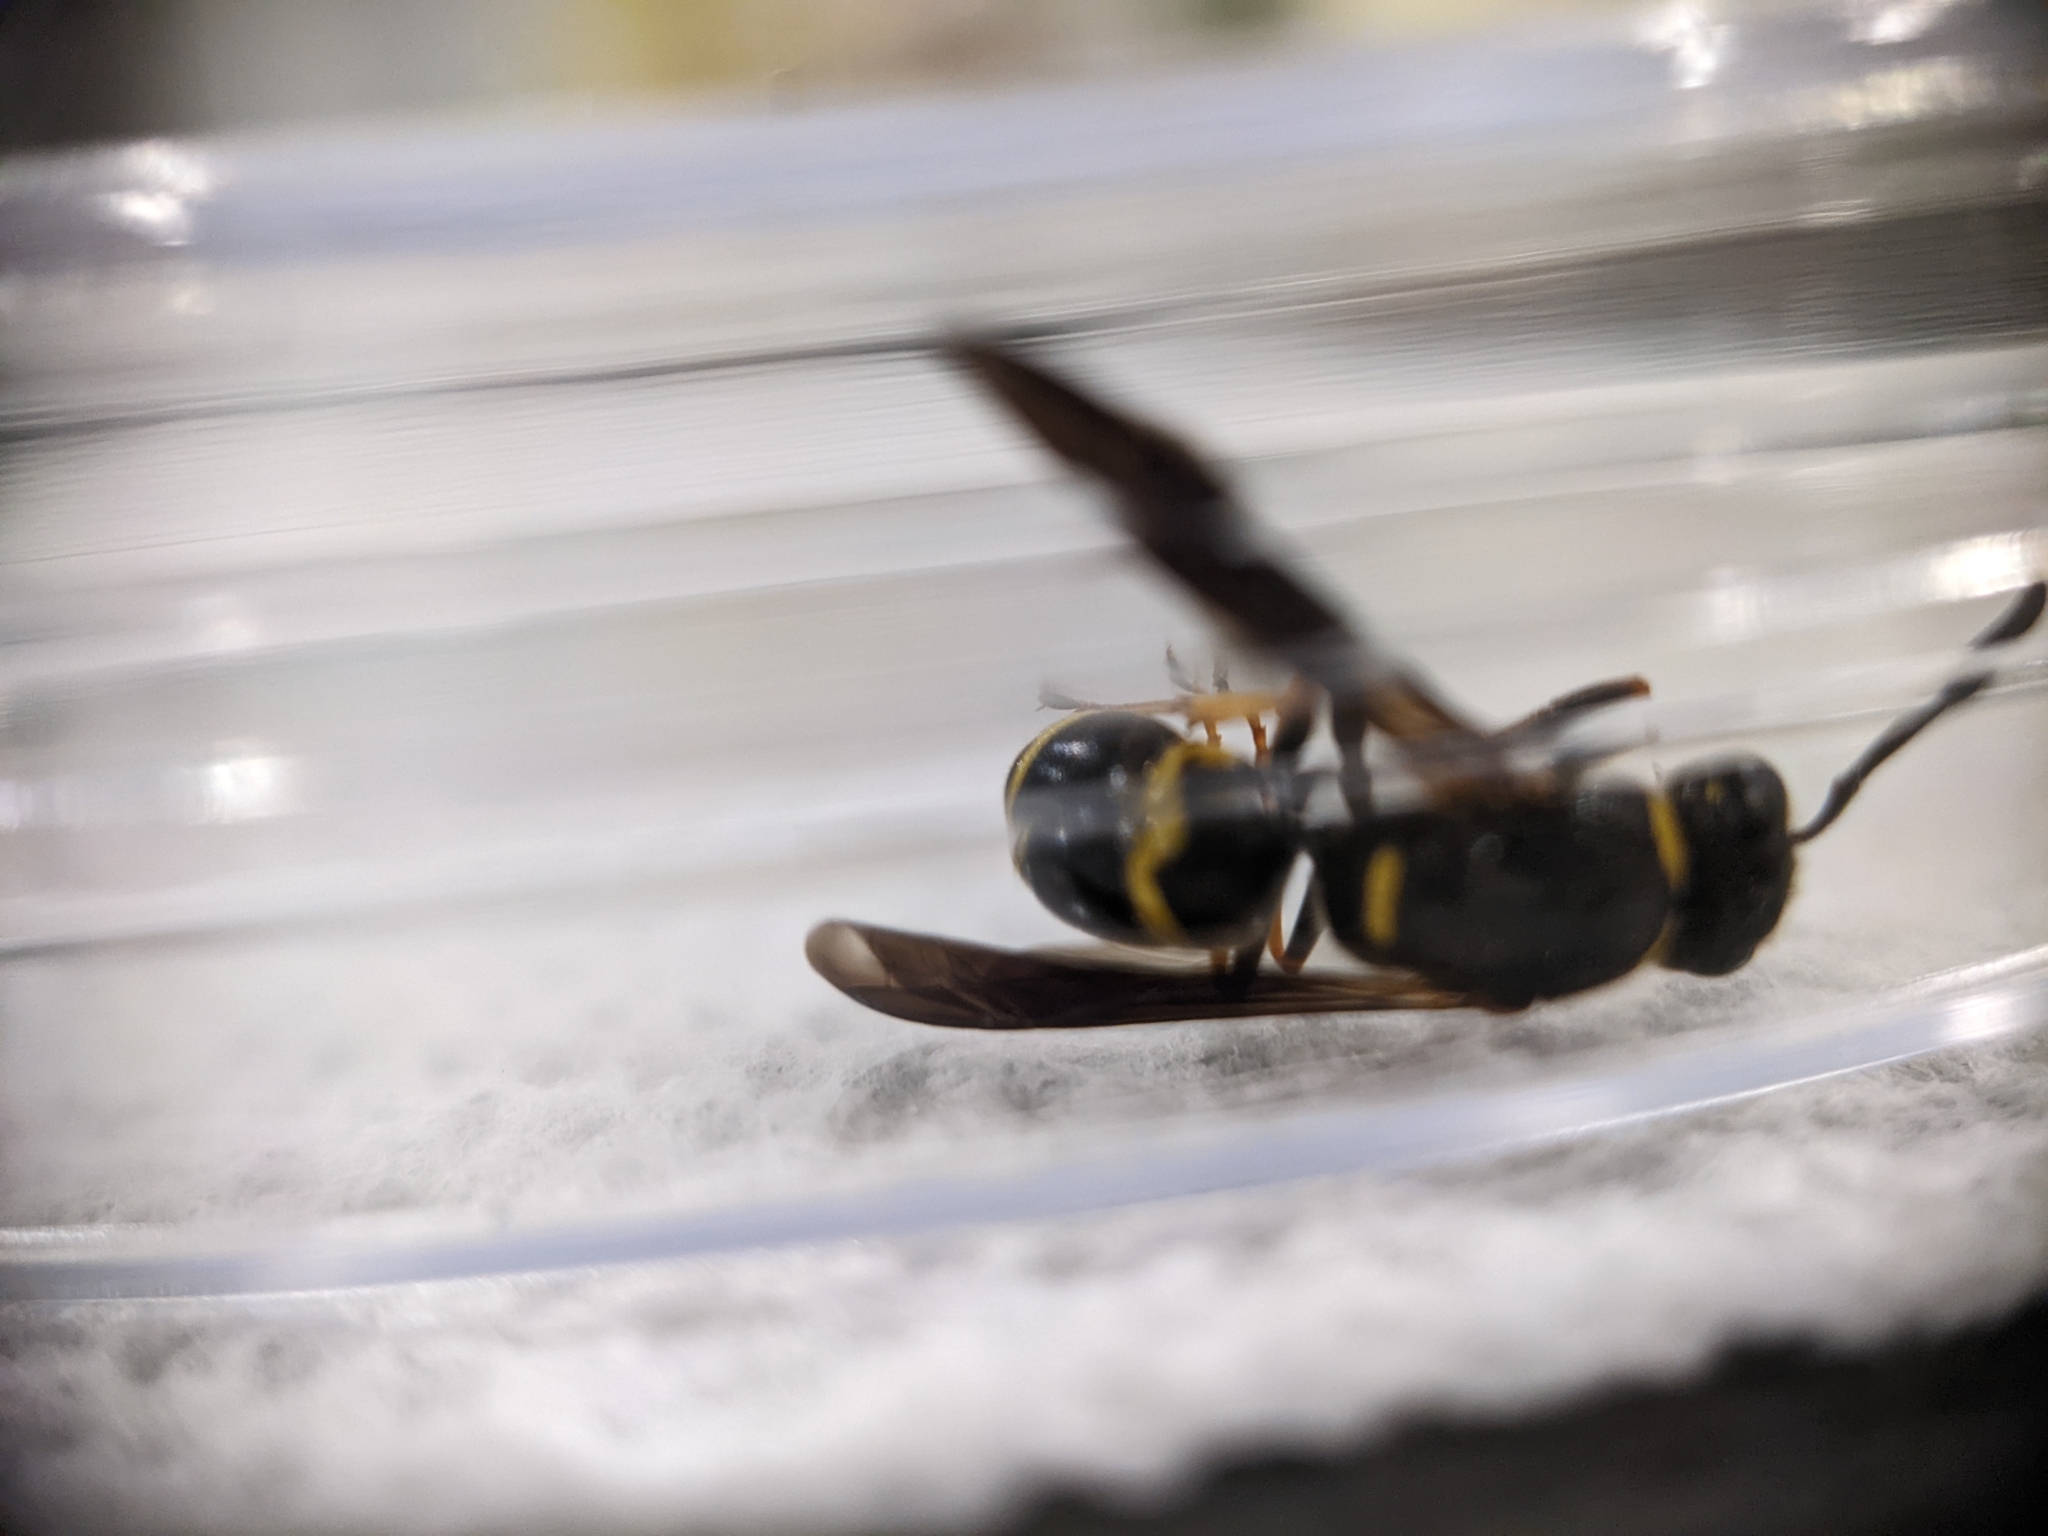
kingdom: Animalia
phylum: Arthropoda
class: Insecta
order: Hymenoptera
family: Eumenidae
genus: Euodynerus
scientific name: Euodynerus
